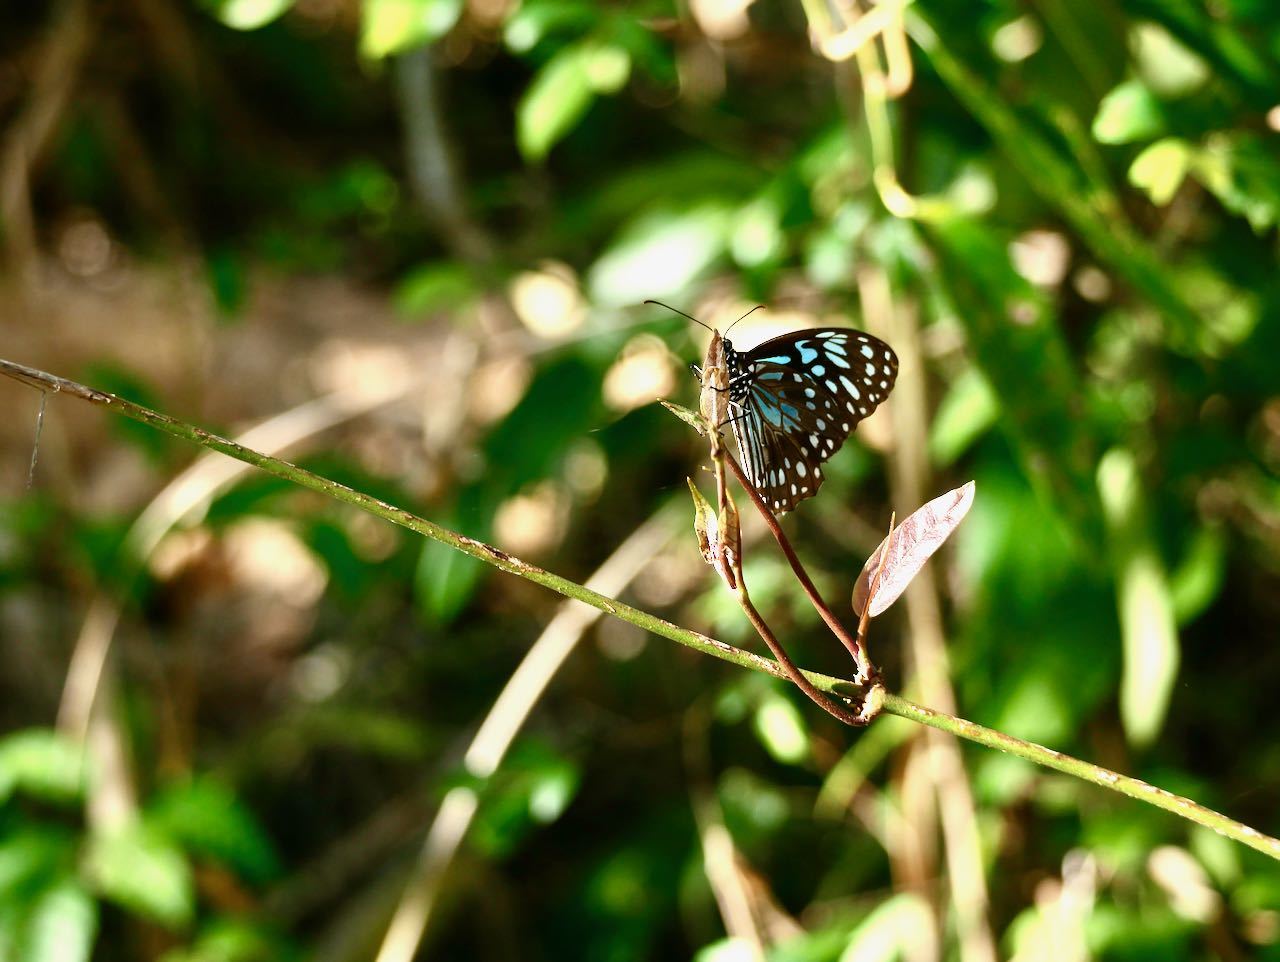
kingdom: Animalia
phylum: Arthropoda
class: Insecta
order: Lepidoptera
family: Nymphalidae
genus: Tirumala
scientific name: Tirumala hamata
